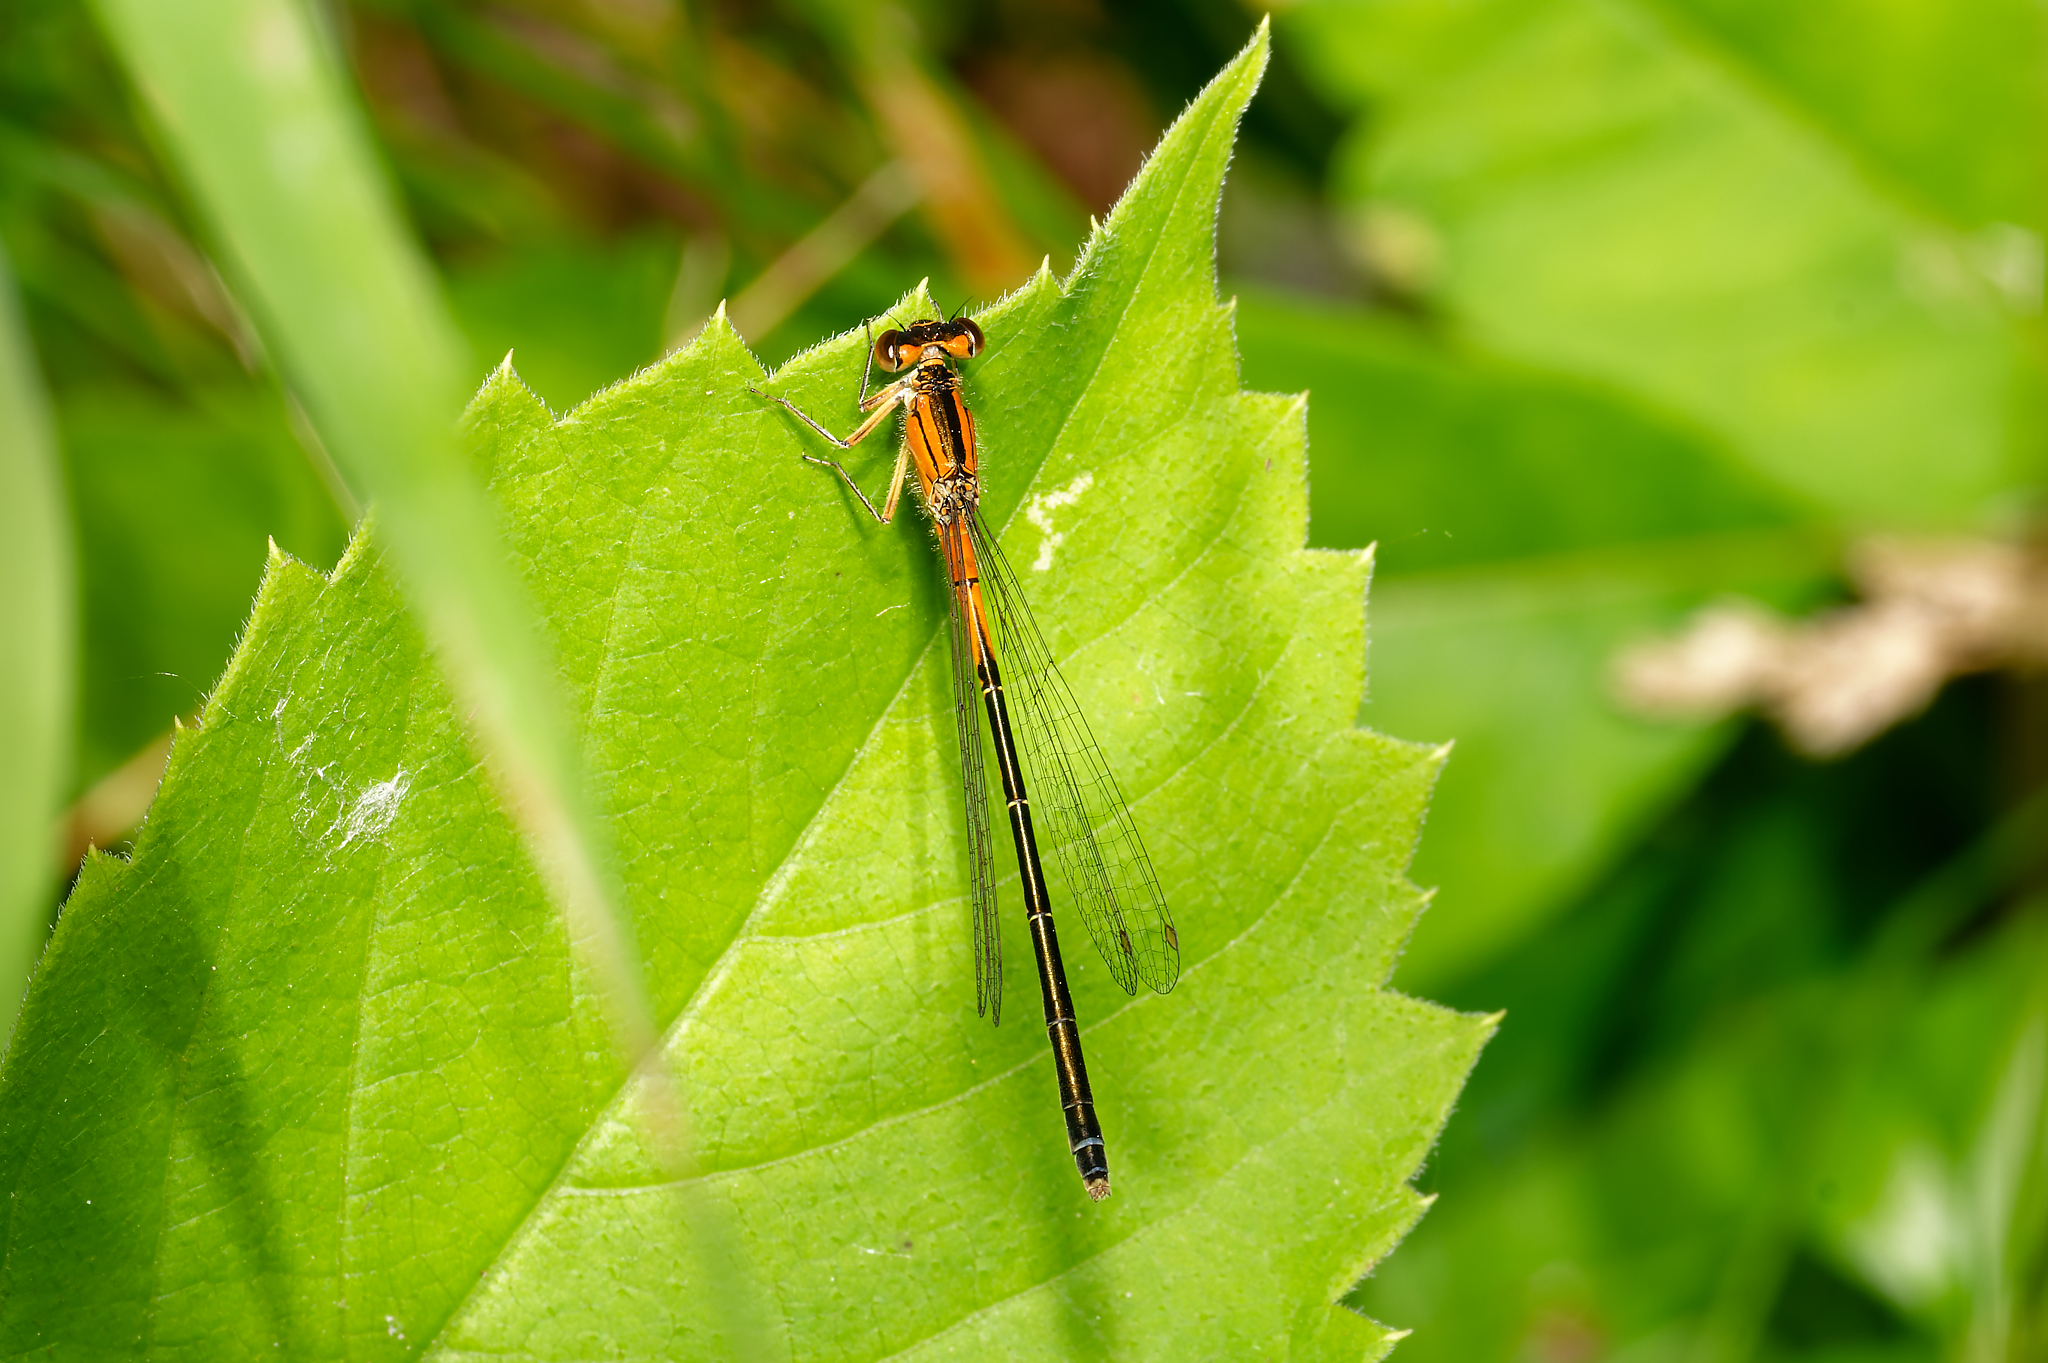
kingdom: Animalia
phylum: Arthropoda
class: Insecta
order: Odonata
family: Coenagrionidae
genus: Ischnura
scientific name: Ischnura verticalis
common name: Eastern forktail
